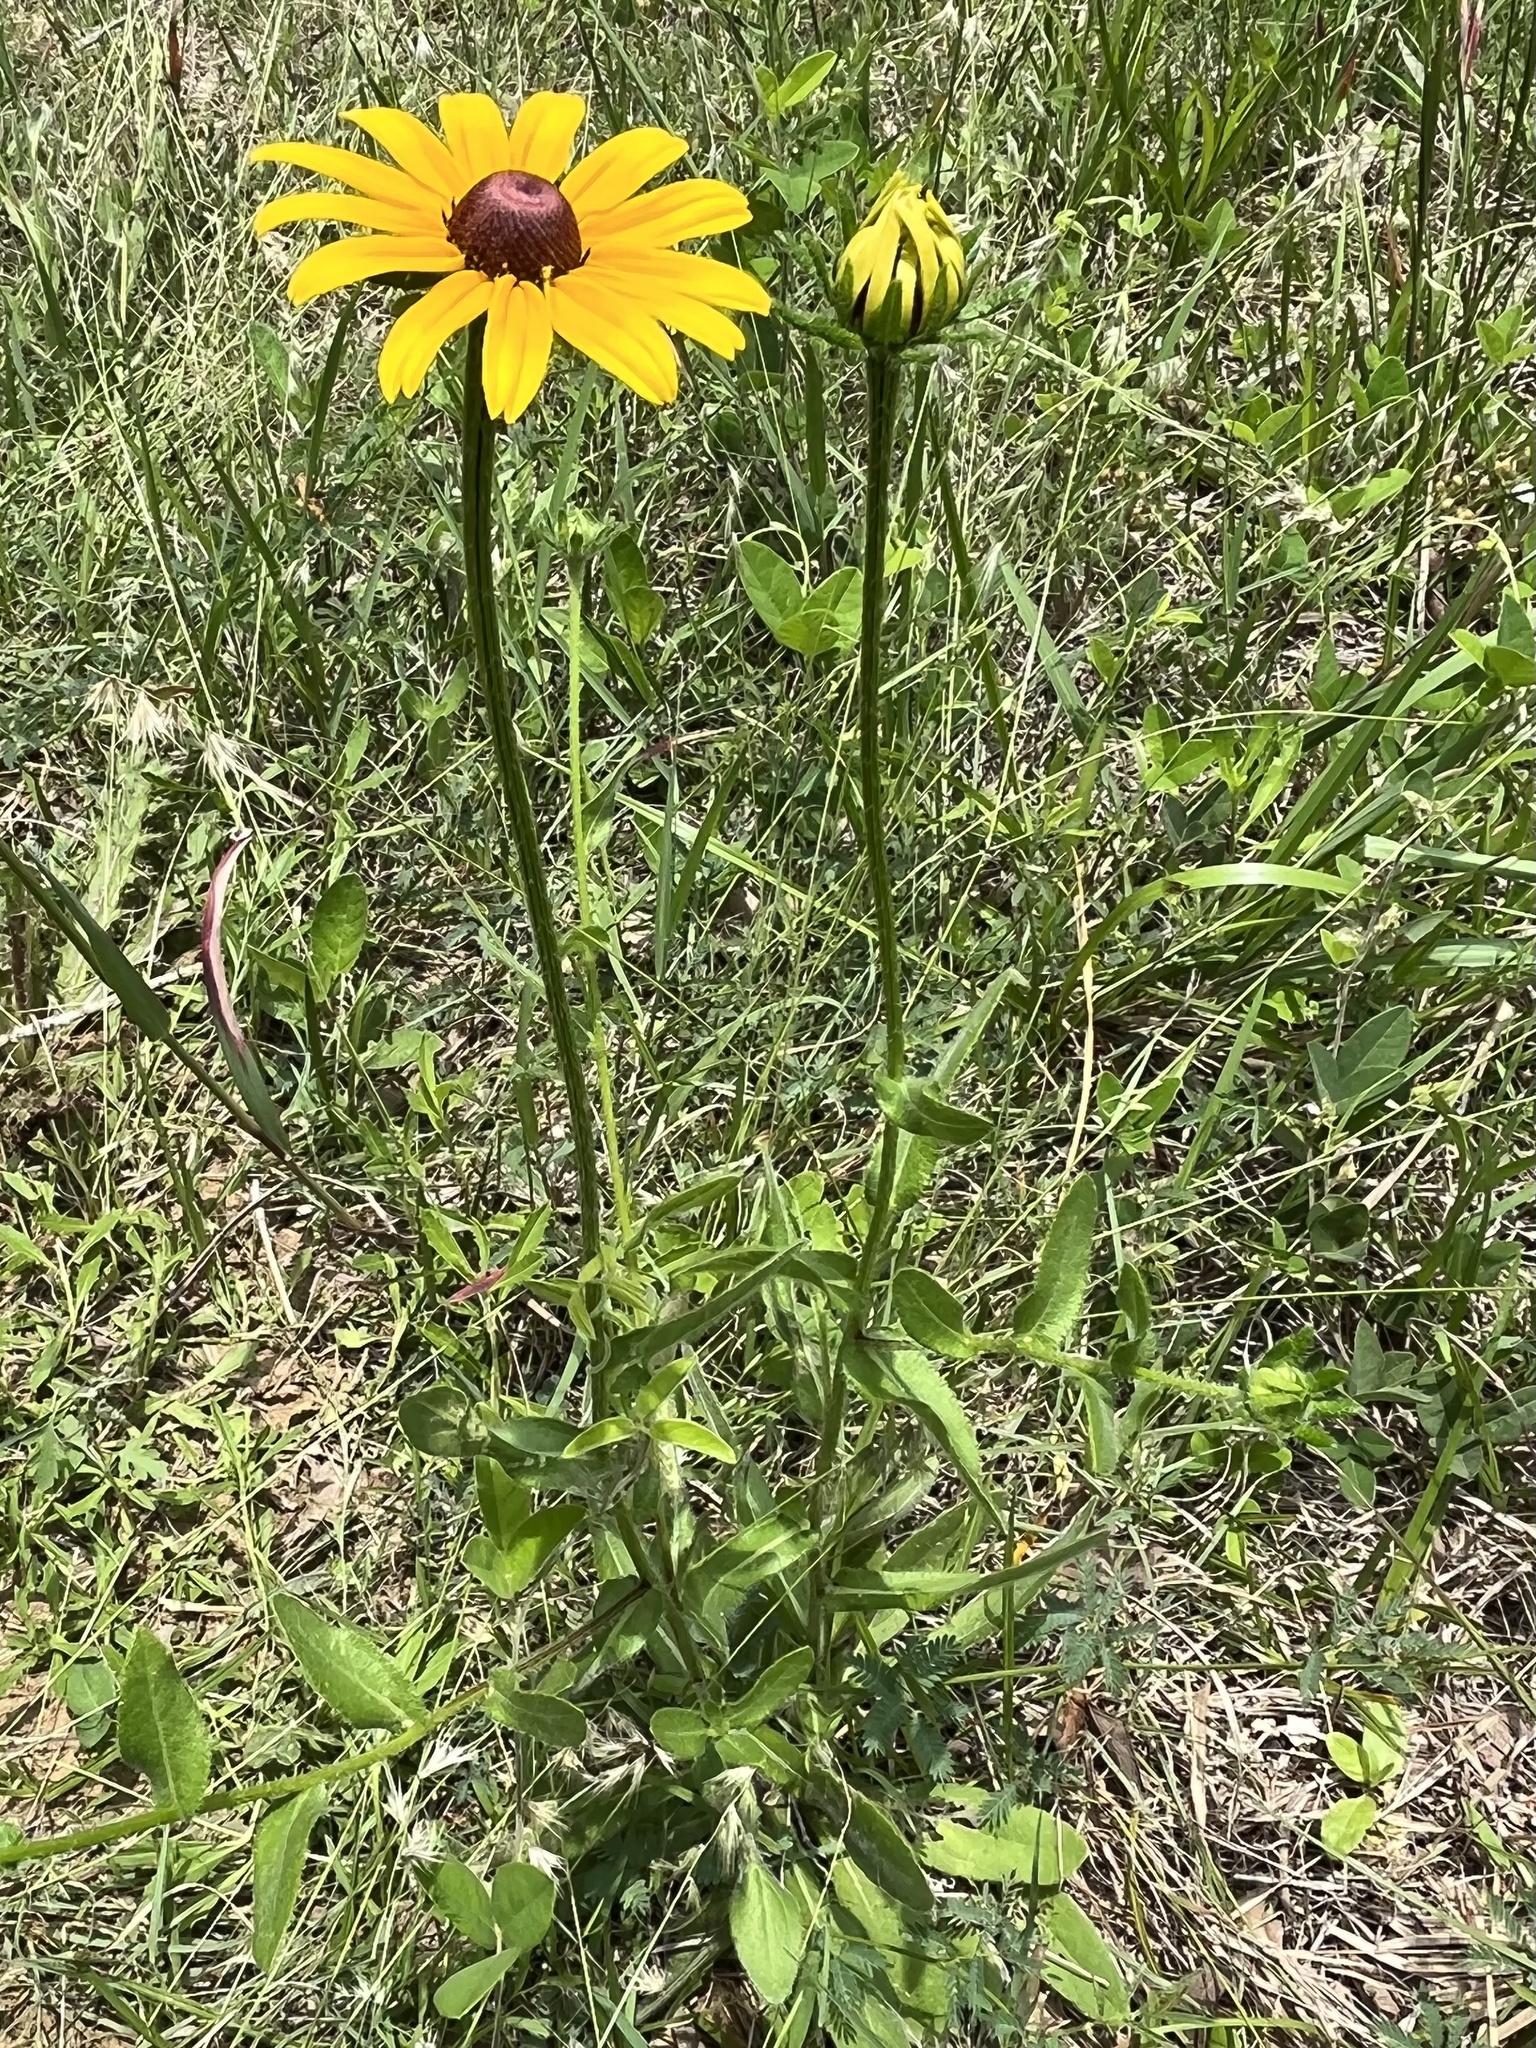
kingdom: Plantae
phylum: Tracheophyta
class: Magnoliopsida
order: Asterales
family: Asteraceae
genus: Rudbeckia
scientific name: Rudbeckia hirta
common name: Black-eyed-susan
